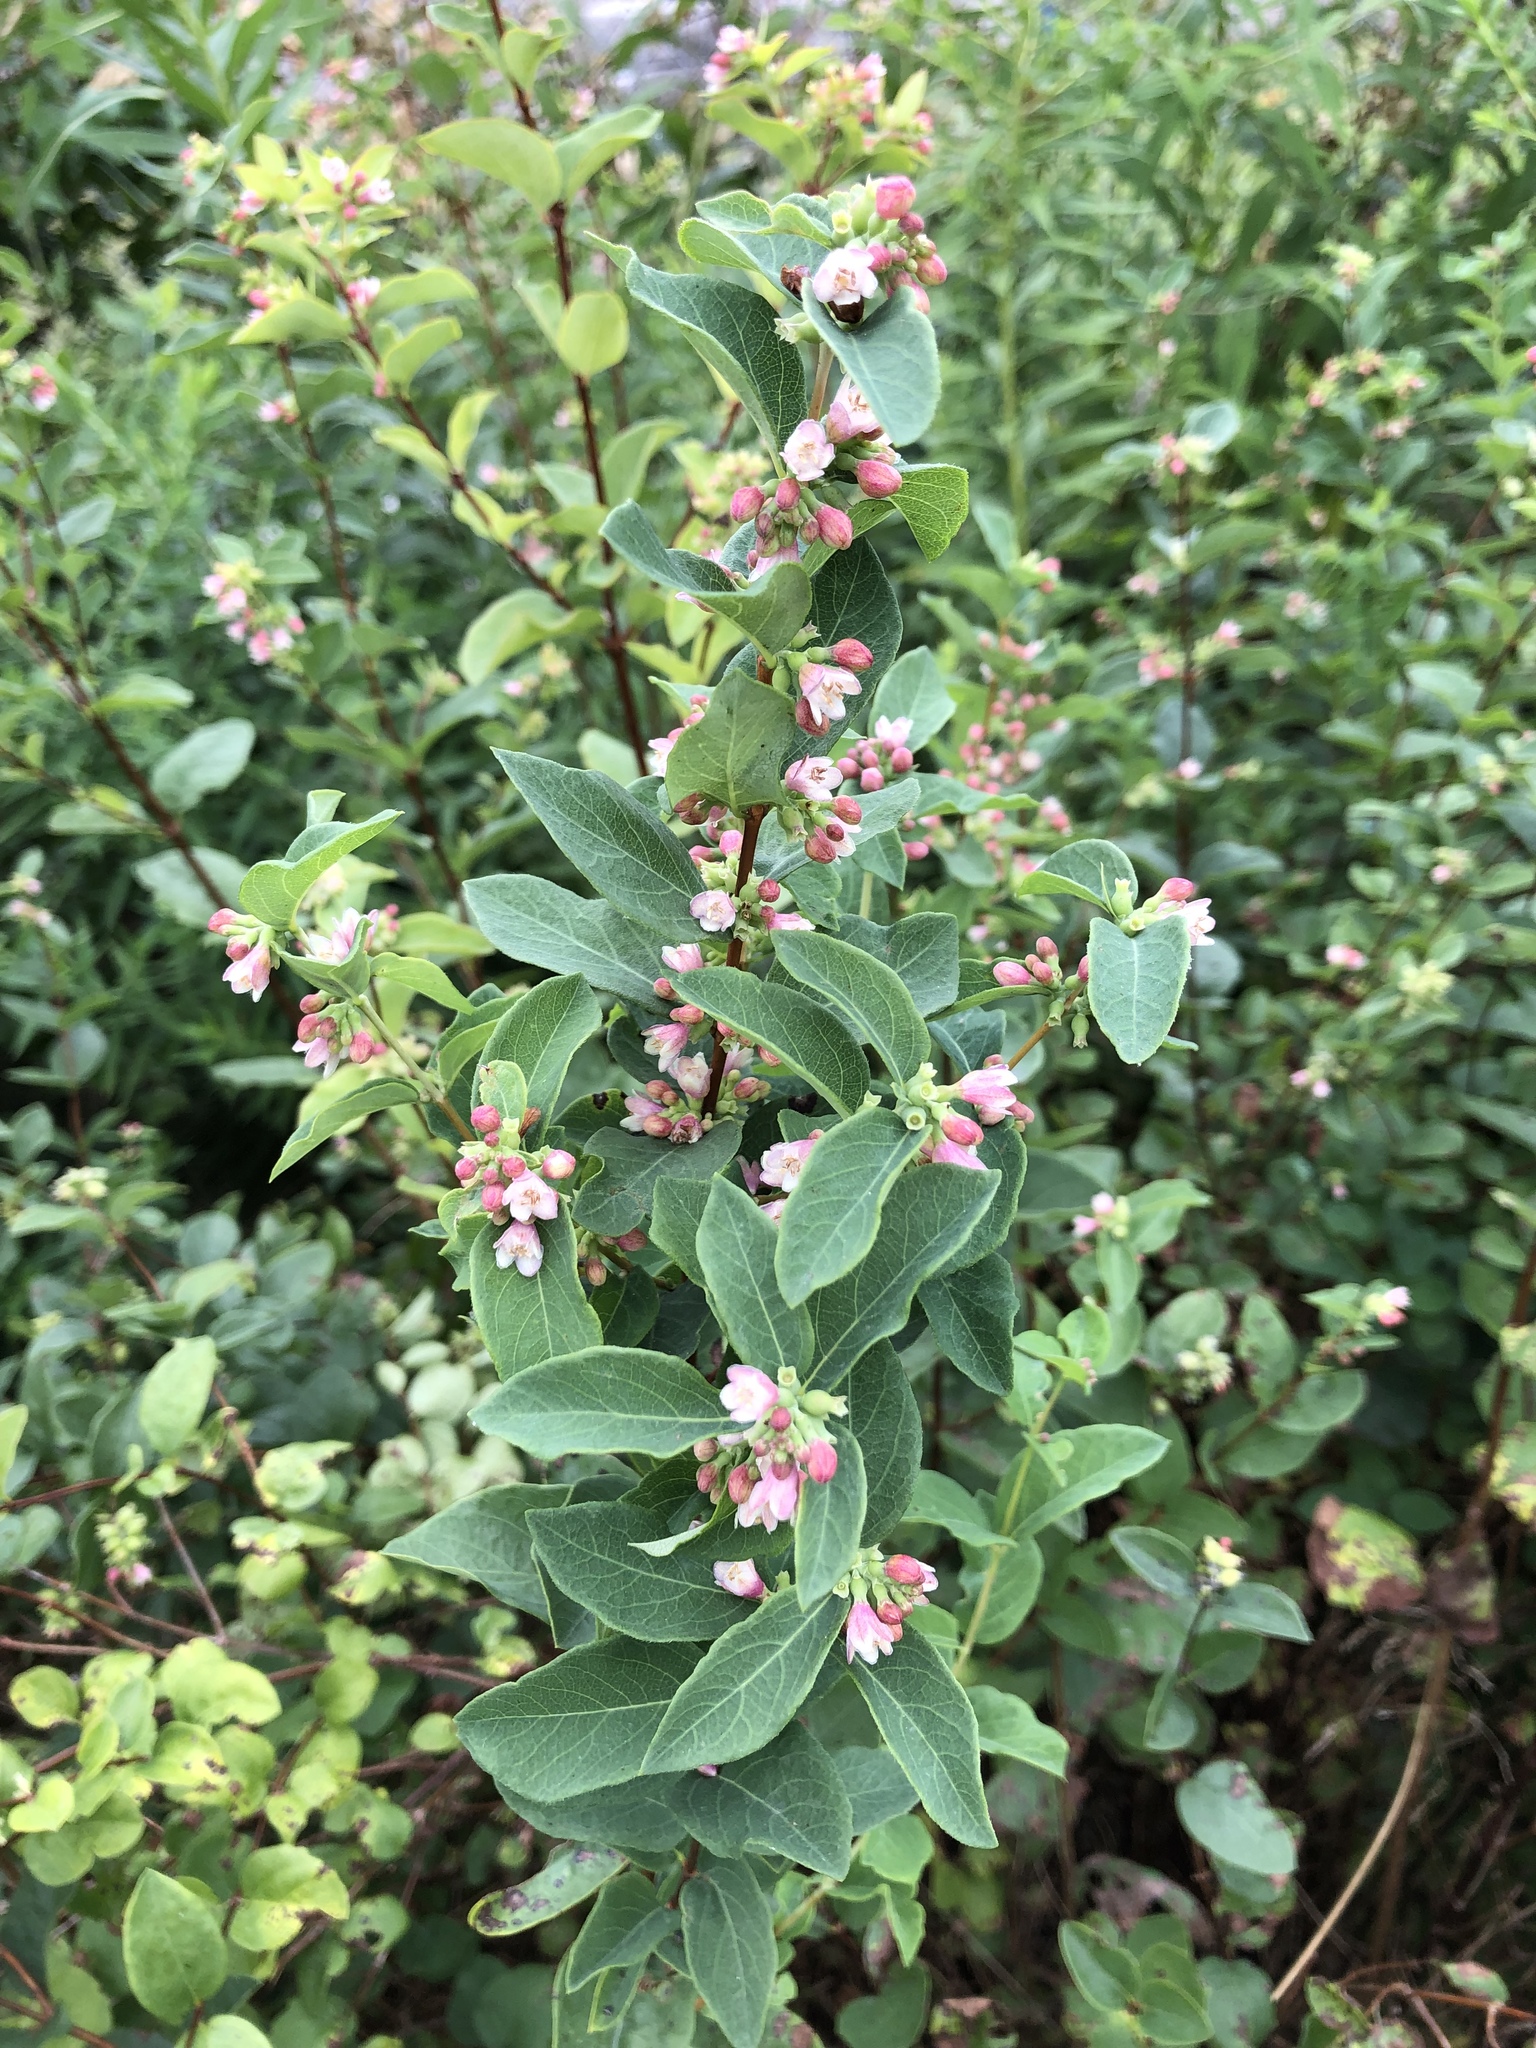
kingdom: Plantae
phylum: Tracheophyta
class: Magnoliopsida
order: Dipsacales
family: Caprifoliaceae
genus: Symphoricarpos
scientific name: Symphoricarpos albus
